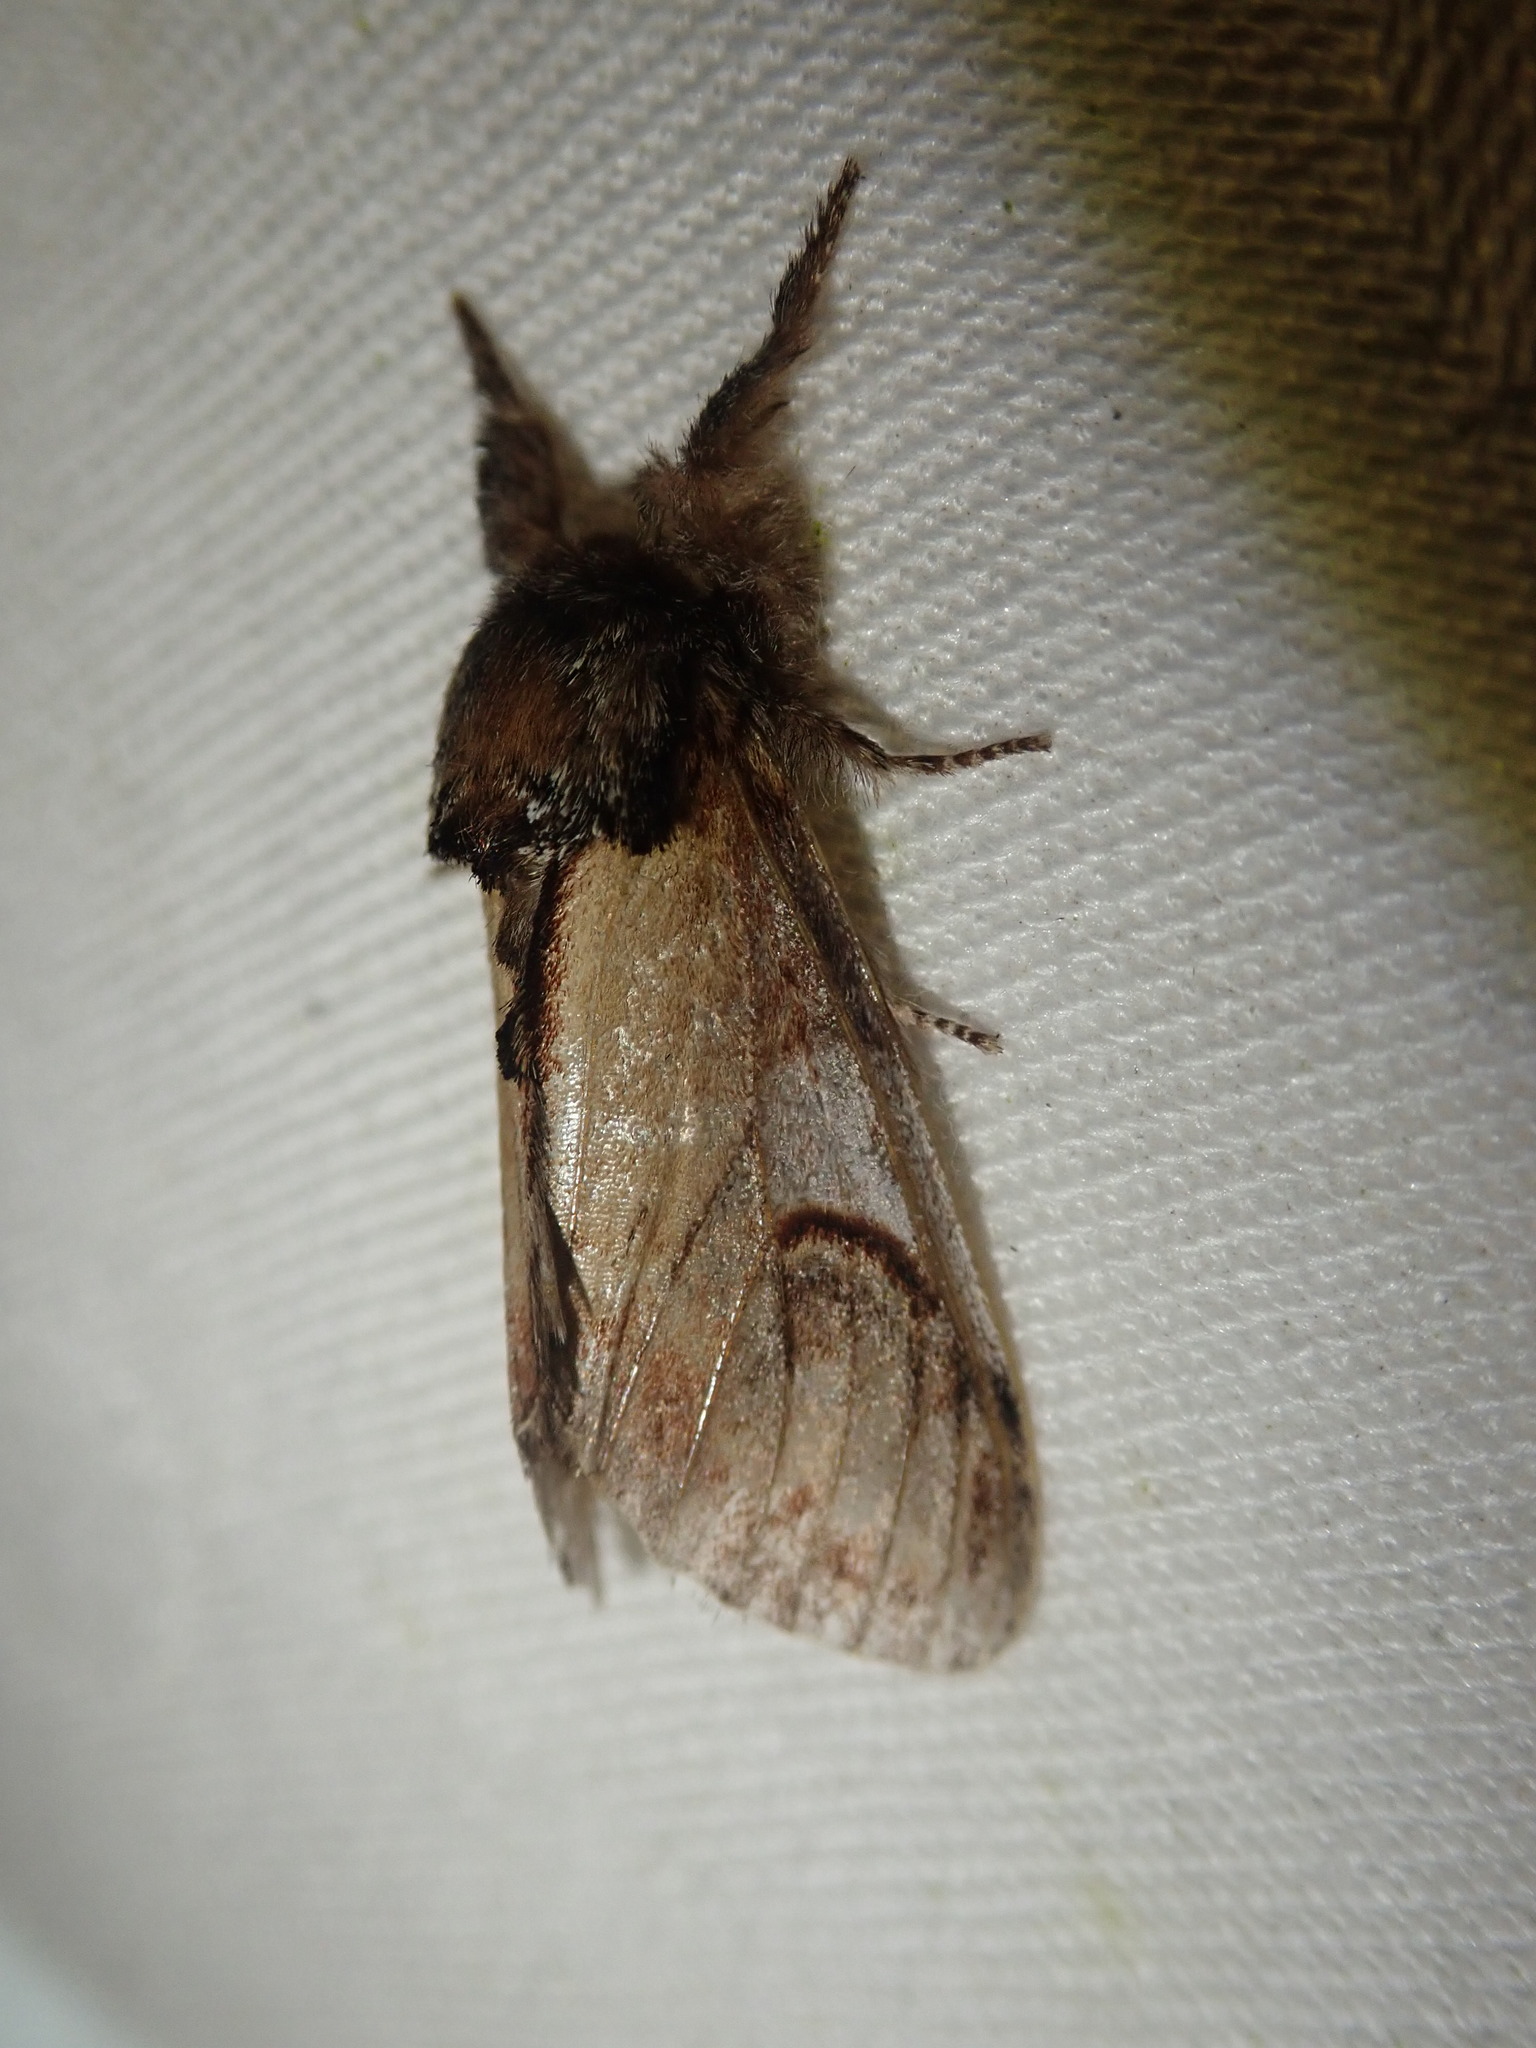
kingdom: Animalia
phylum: Arthropoda
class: Insecta
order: Lepidoptera
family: Notodontidae
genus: Notodonta
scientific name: Notodonta ziczac
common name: Pebble prominent
